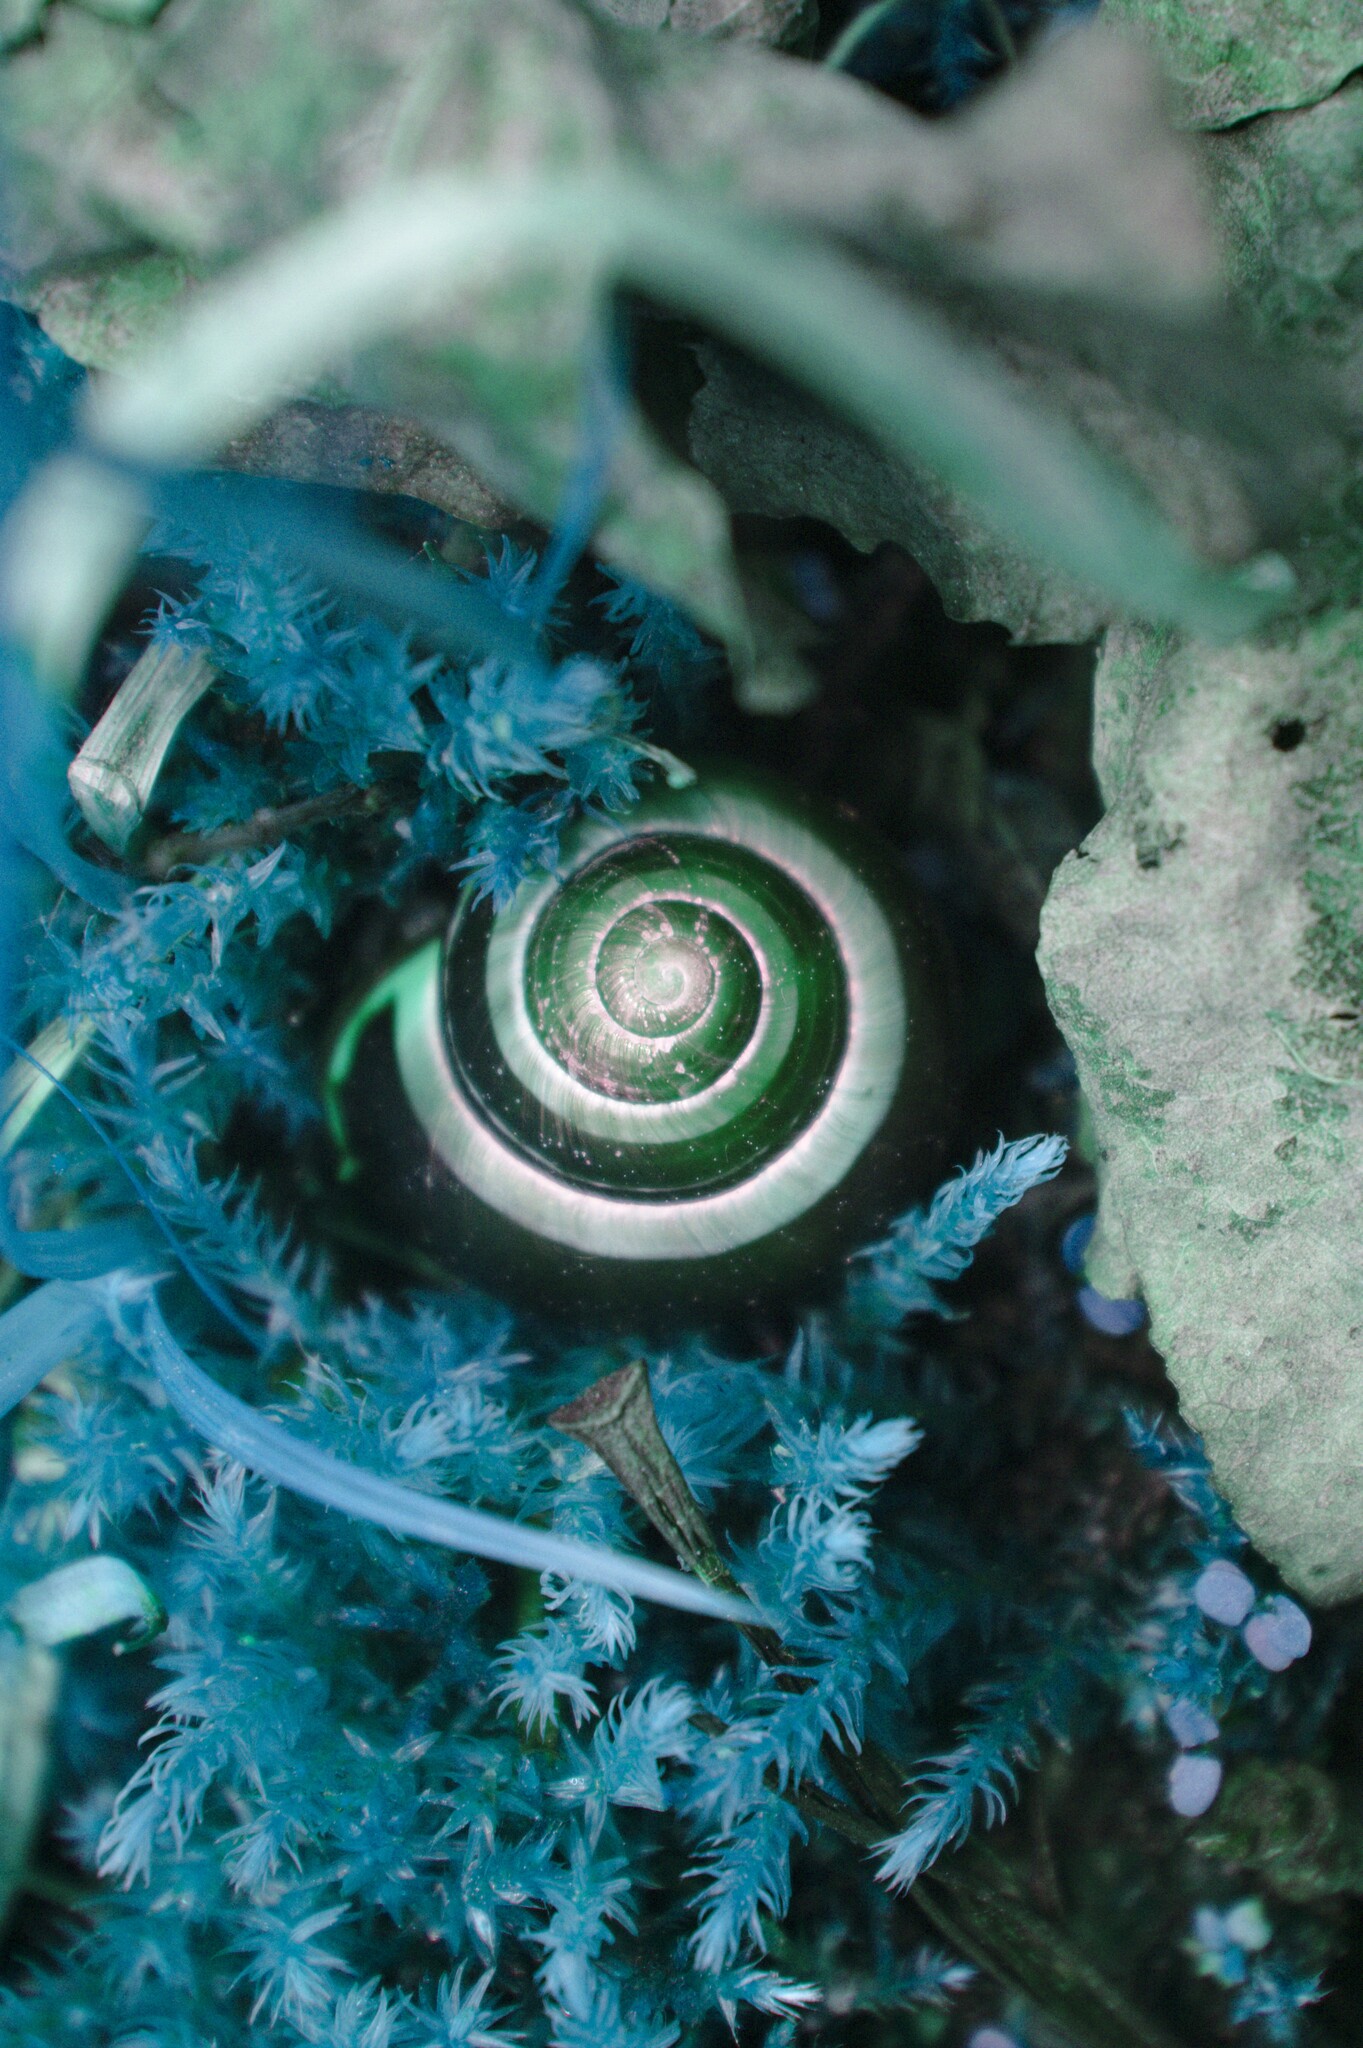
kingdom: Animalia
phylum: Mollusca
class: Gastropoda
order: Stylommatophora
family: Helicidae
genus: Cepaea
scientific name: Cepaea nemoralis
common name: Grovesnail
